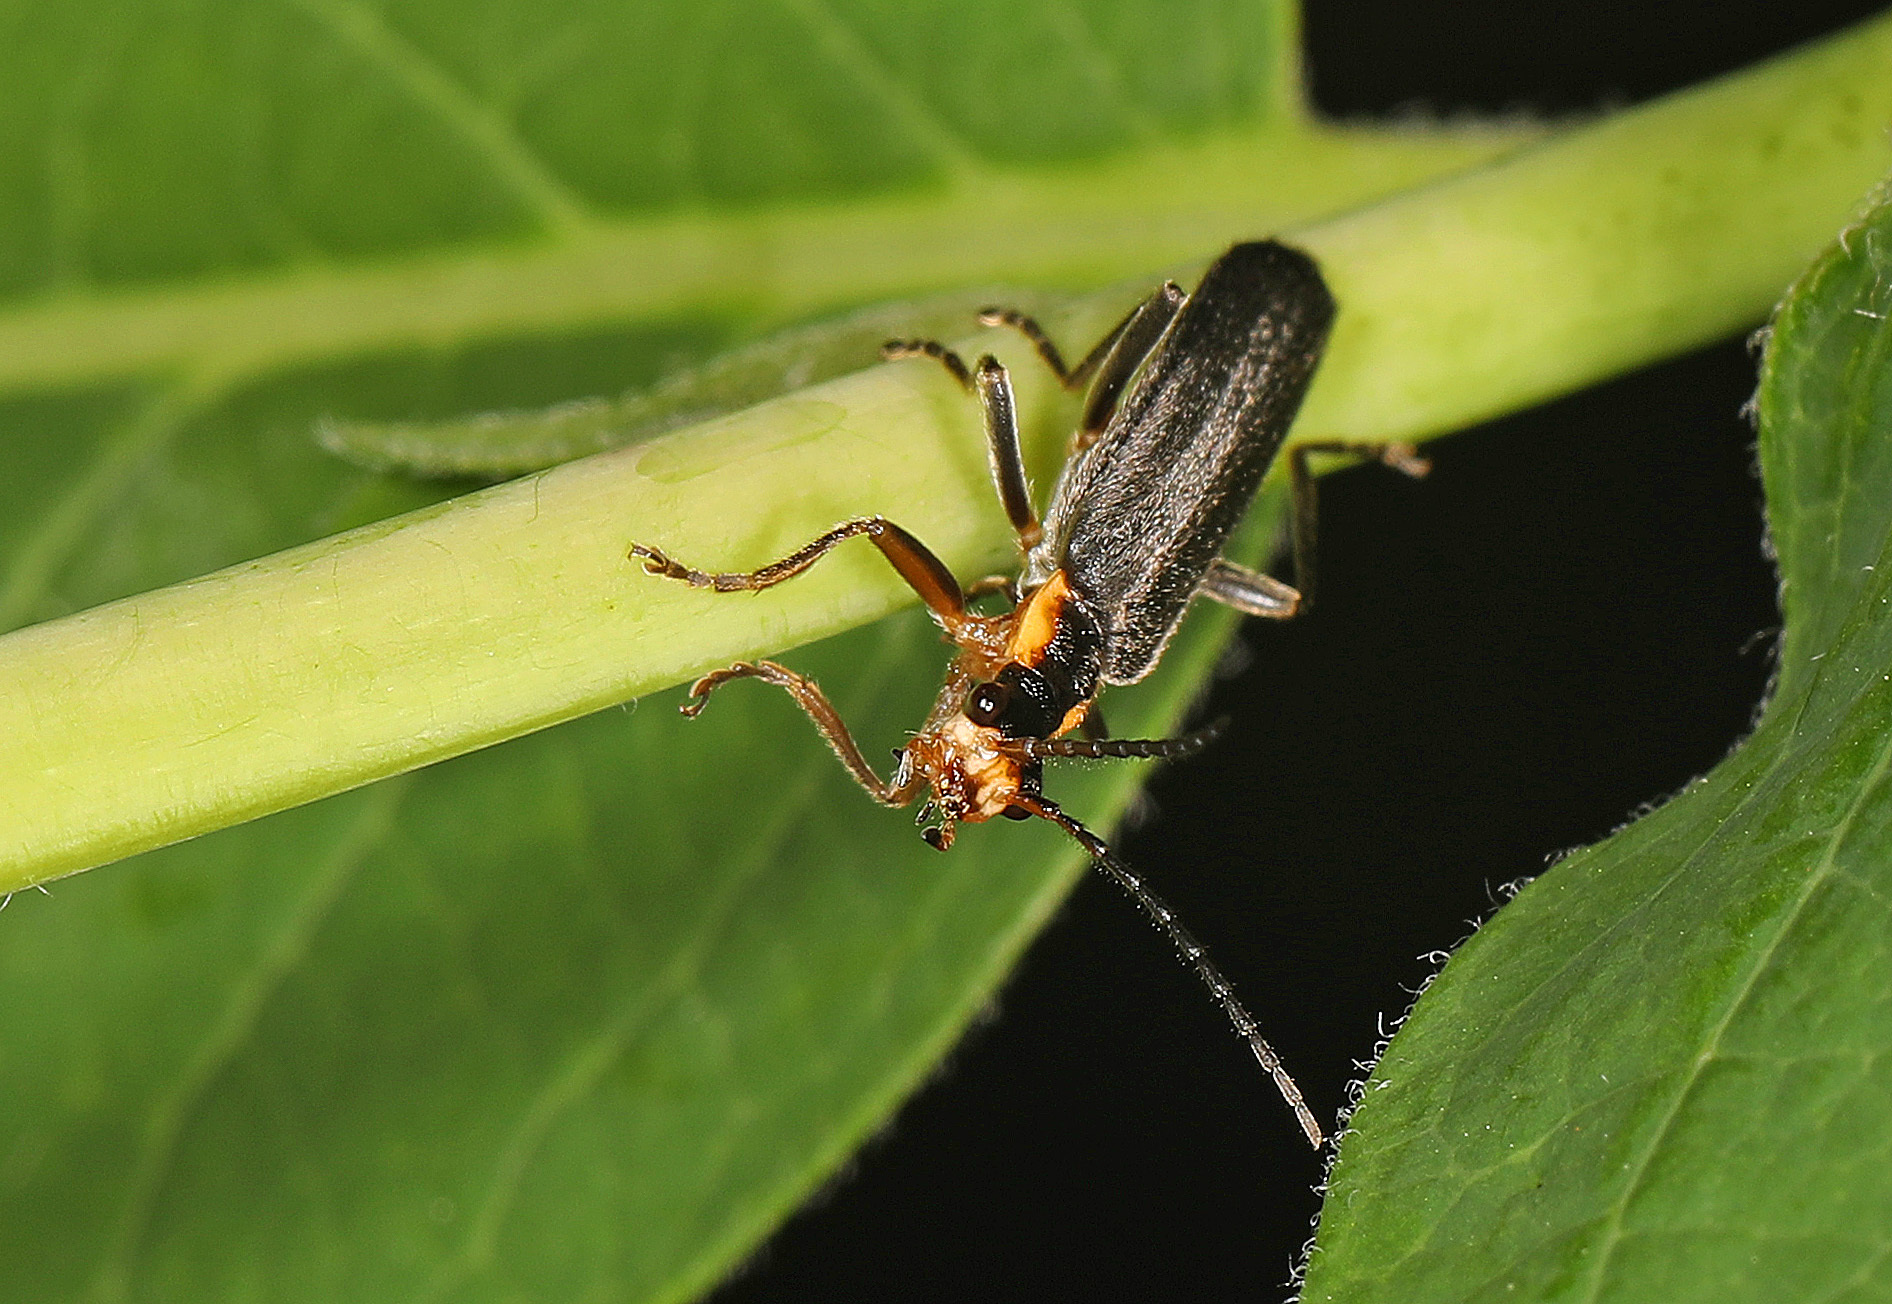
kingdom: Animalia
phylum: Arthropoda
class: Insecta
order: Coleoptera
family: Cantharidae
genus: Podabrus
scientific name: Podabrus rugosulus
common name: Wrinkled soldier beetle
